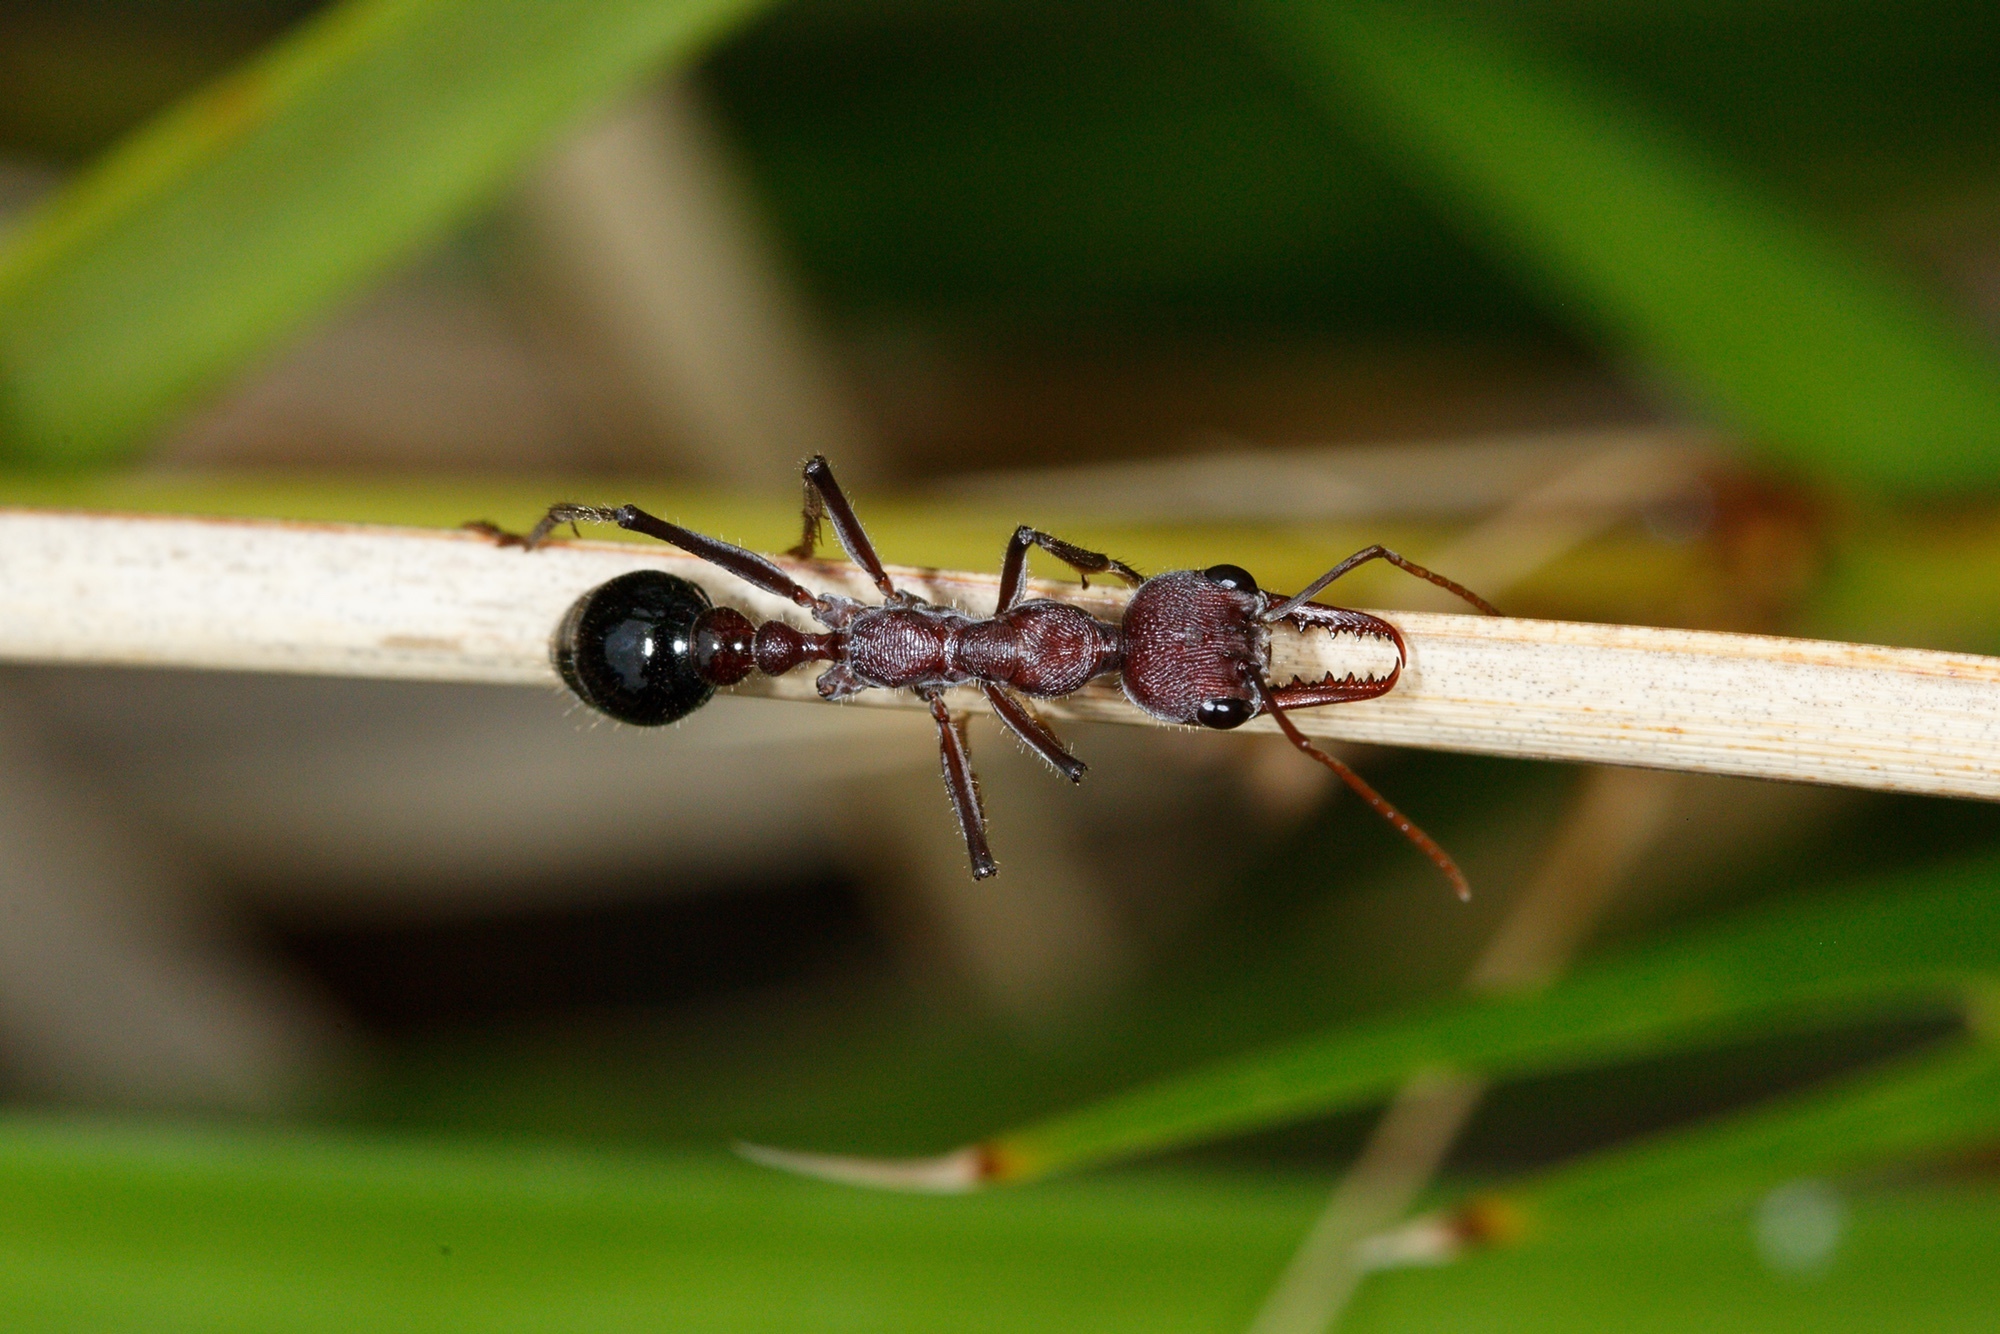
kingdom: Animalia
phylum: Arthropoda
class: Insecta
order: Hymenoptera
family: Formicidae
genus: Myrmecia
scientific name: Myrmecia simillima
